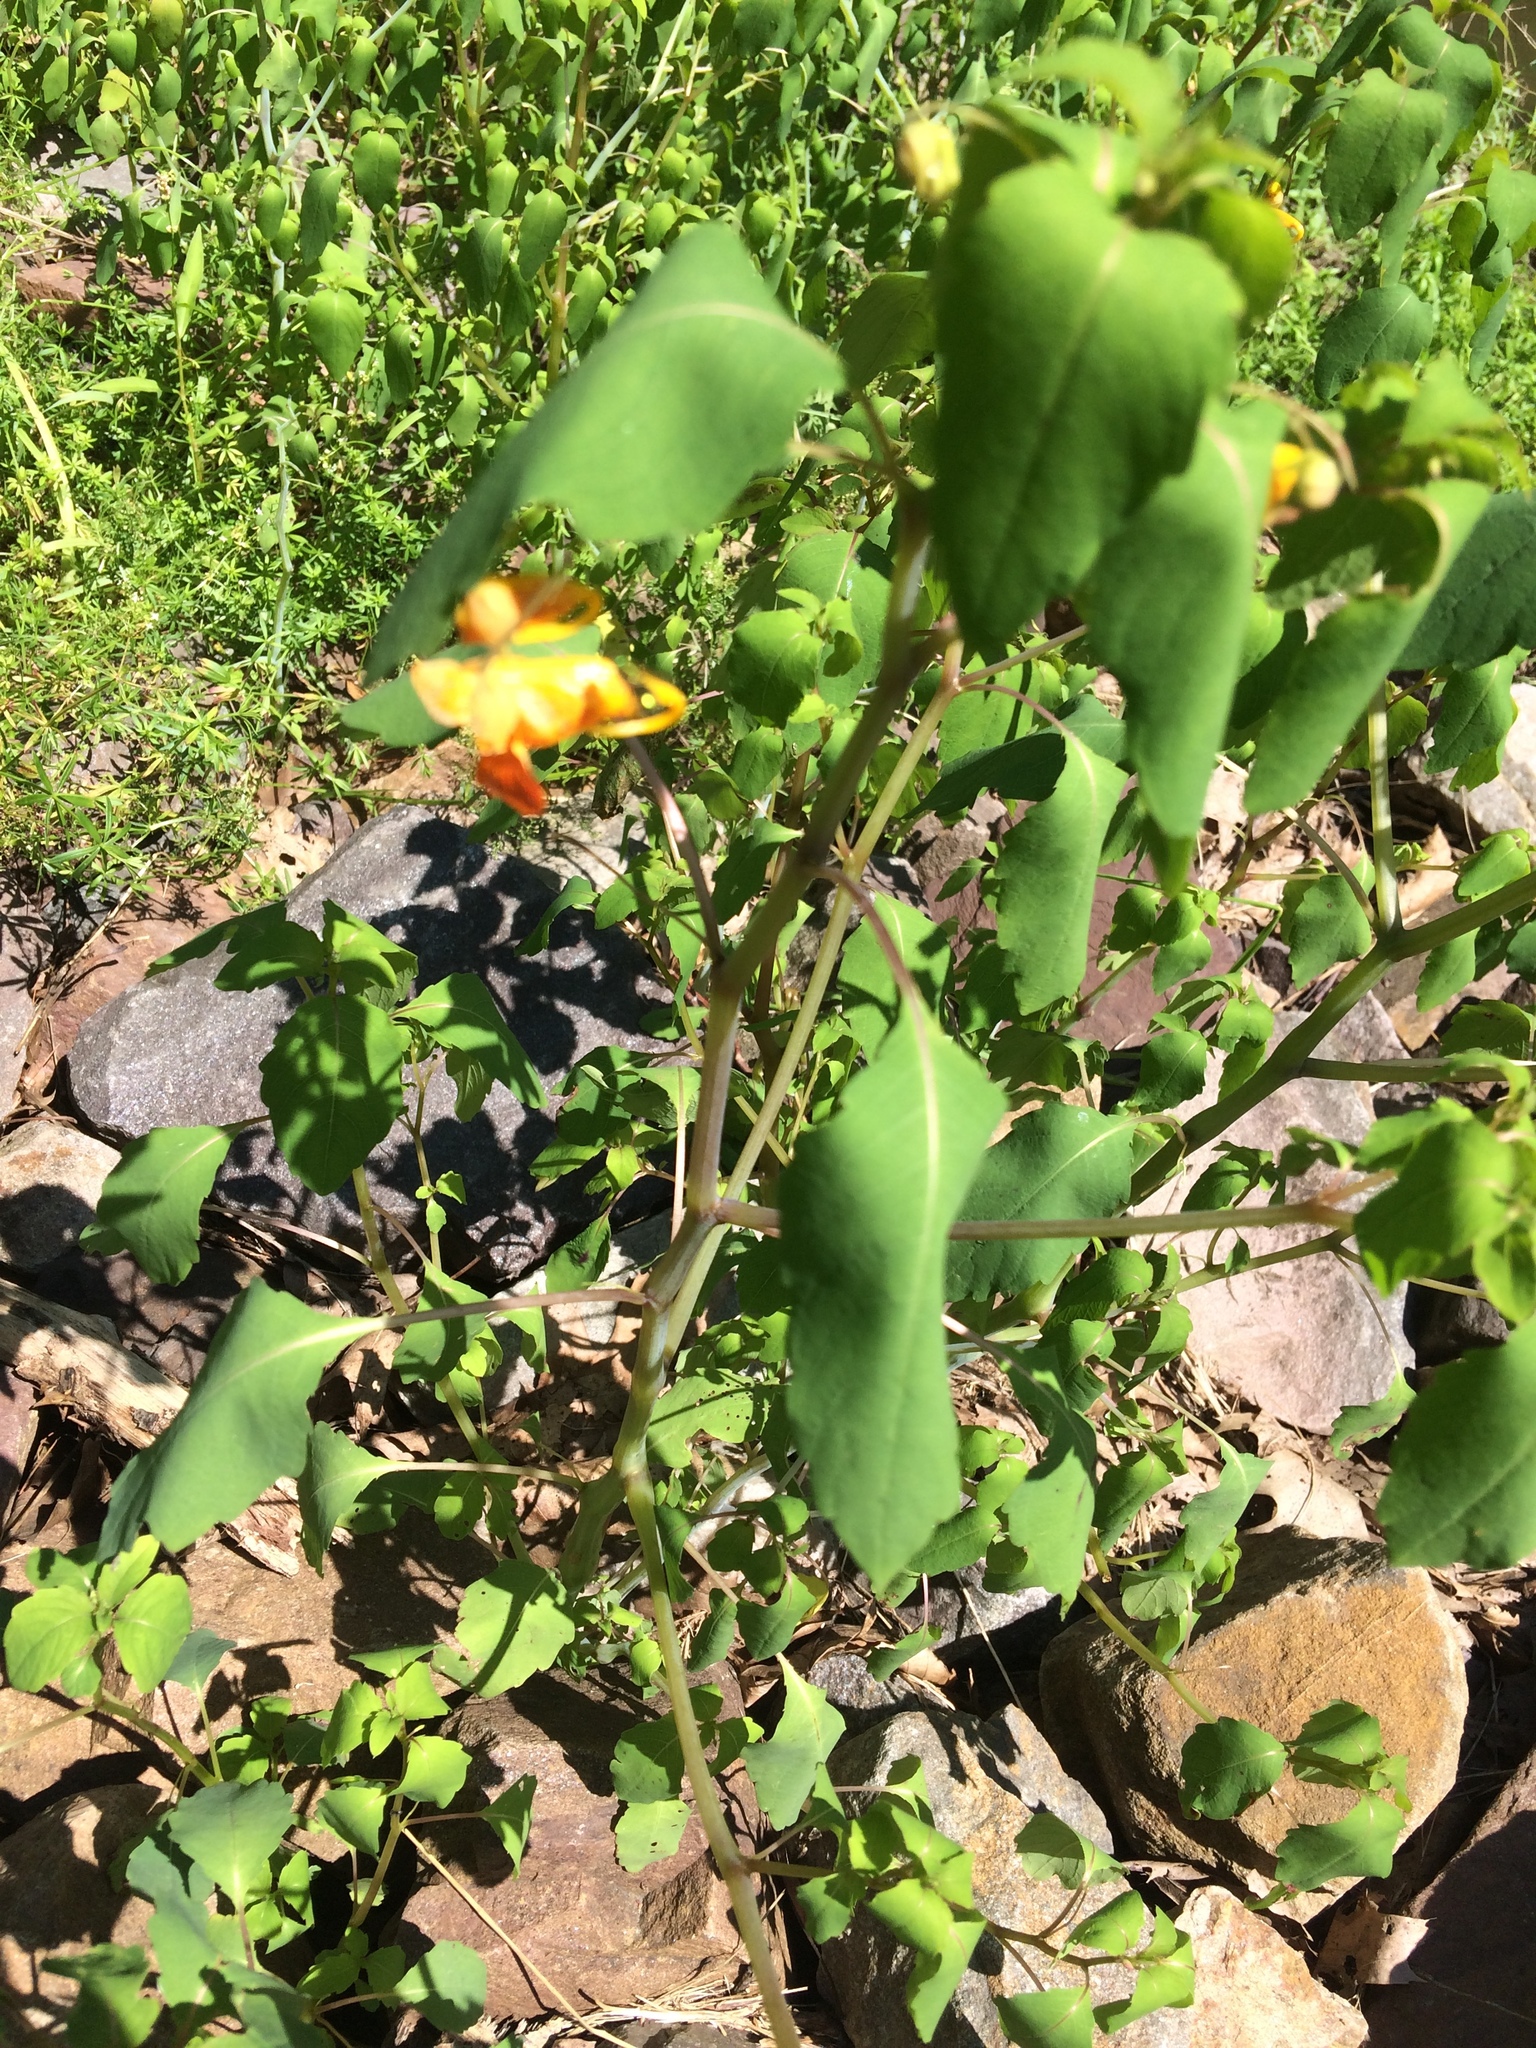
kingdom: Plantae
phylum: Tracheophyta
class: Magnoliopsida
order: Ericales
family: Balsaminaceae
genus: Impatiens
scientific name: Impatiens capensis
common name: Orange balsam
